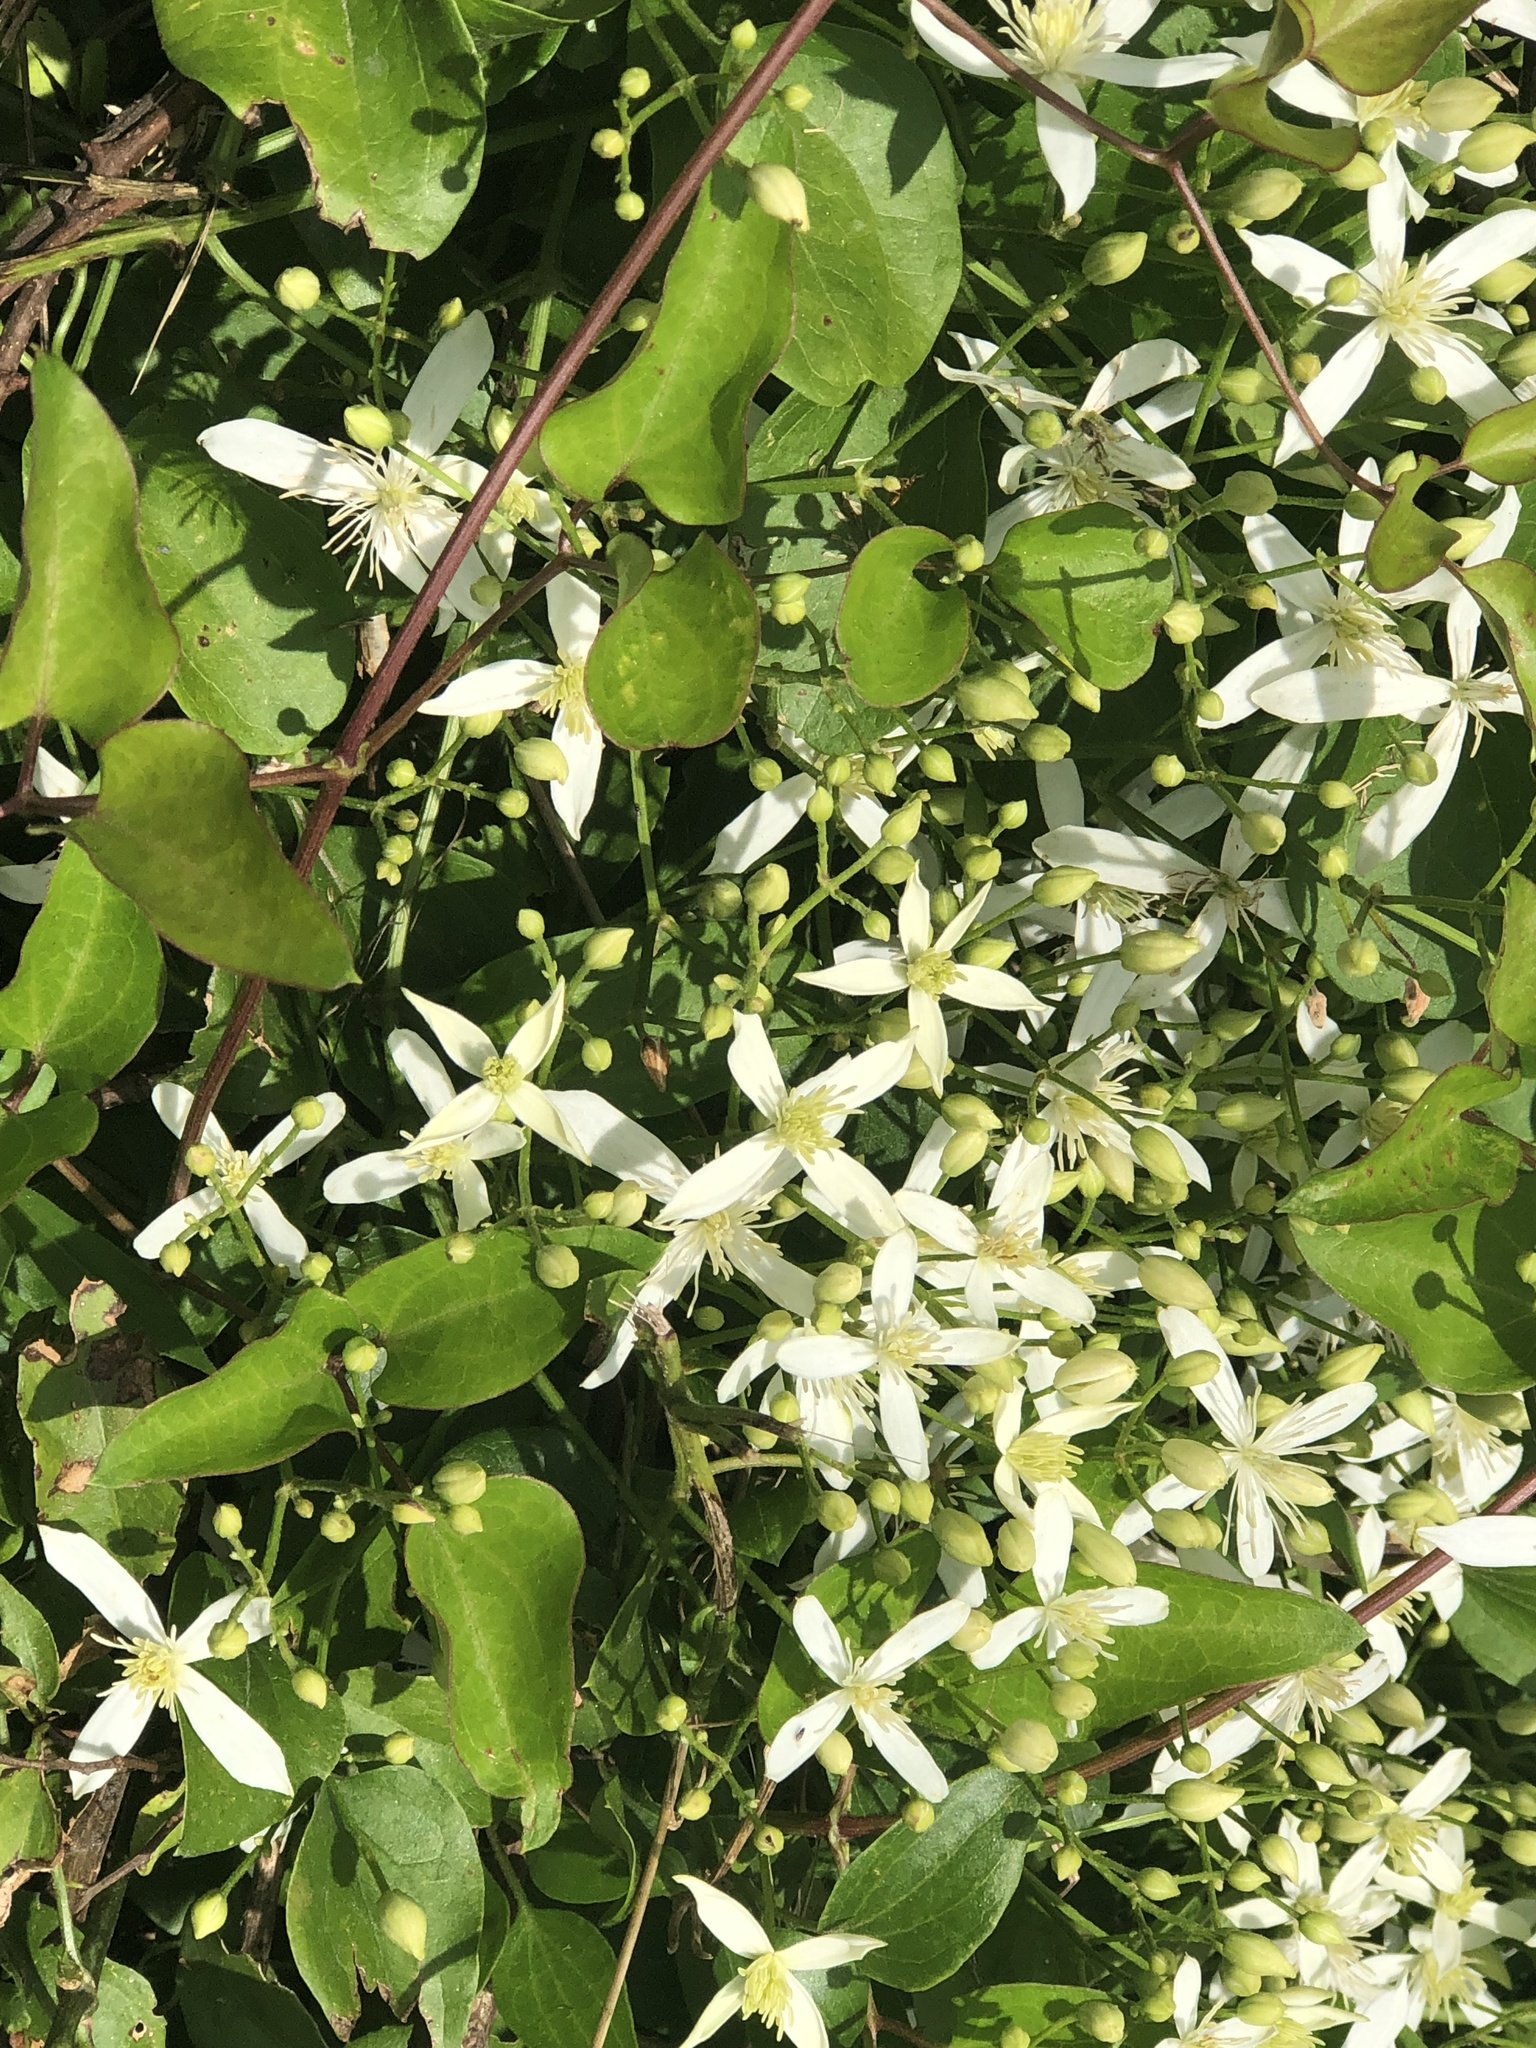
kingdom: Plantae
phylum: Tracheophyta
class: Magnoliopsida
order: Ranunculales
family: Ranunculaceae
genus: Clematis
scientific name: Clematis terniflora
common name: Sweet autumn clematis
